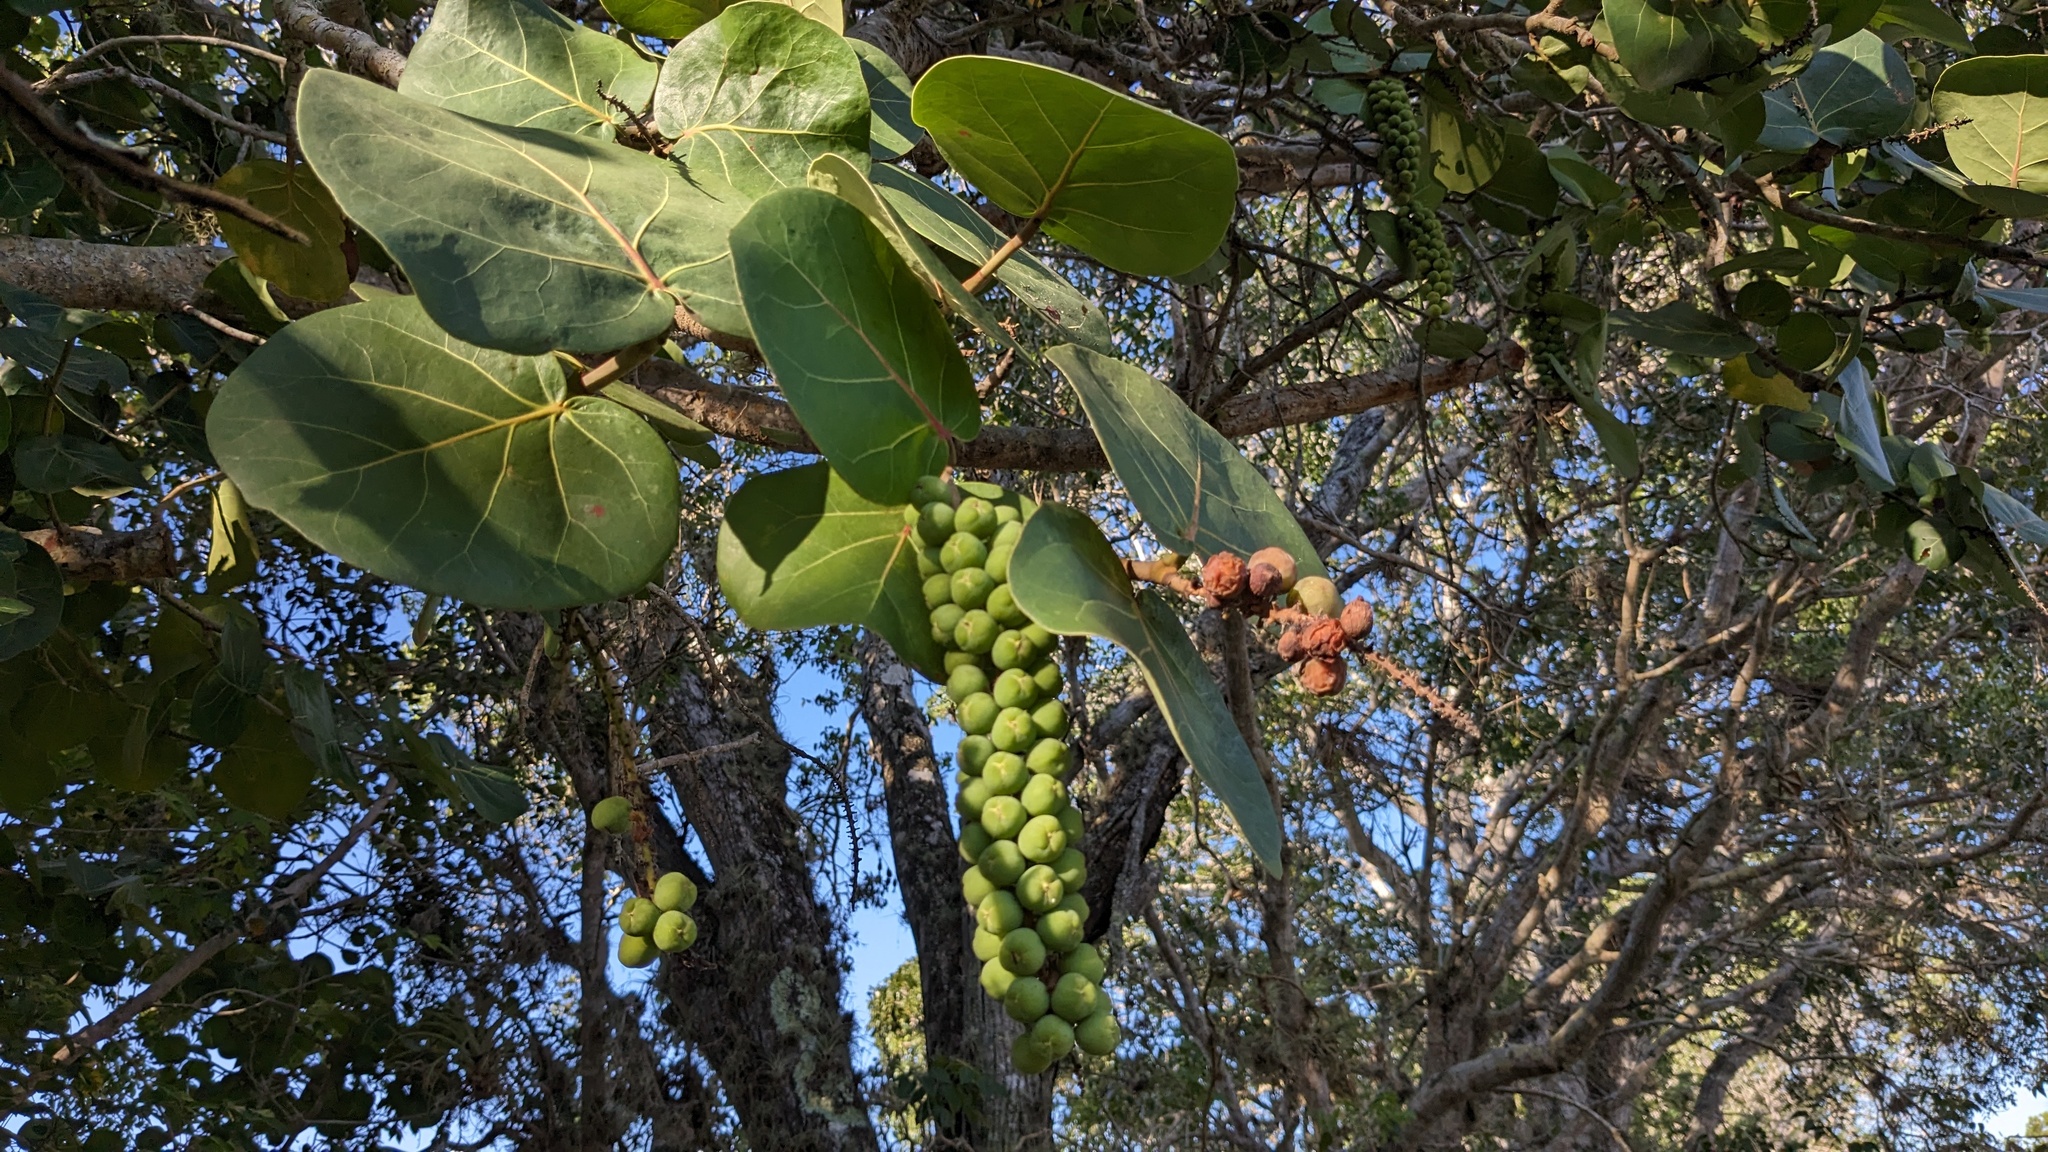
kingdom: Plantae
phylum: Tracheophyta
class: Magnoliopsida
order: Caryophyllales
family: Polygonaceae
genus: Coccoloba
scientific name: Coccoloba uvifera
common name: Seagrape
